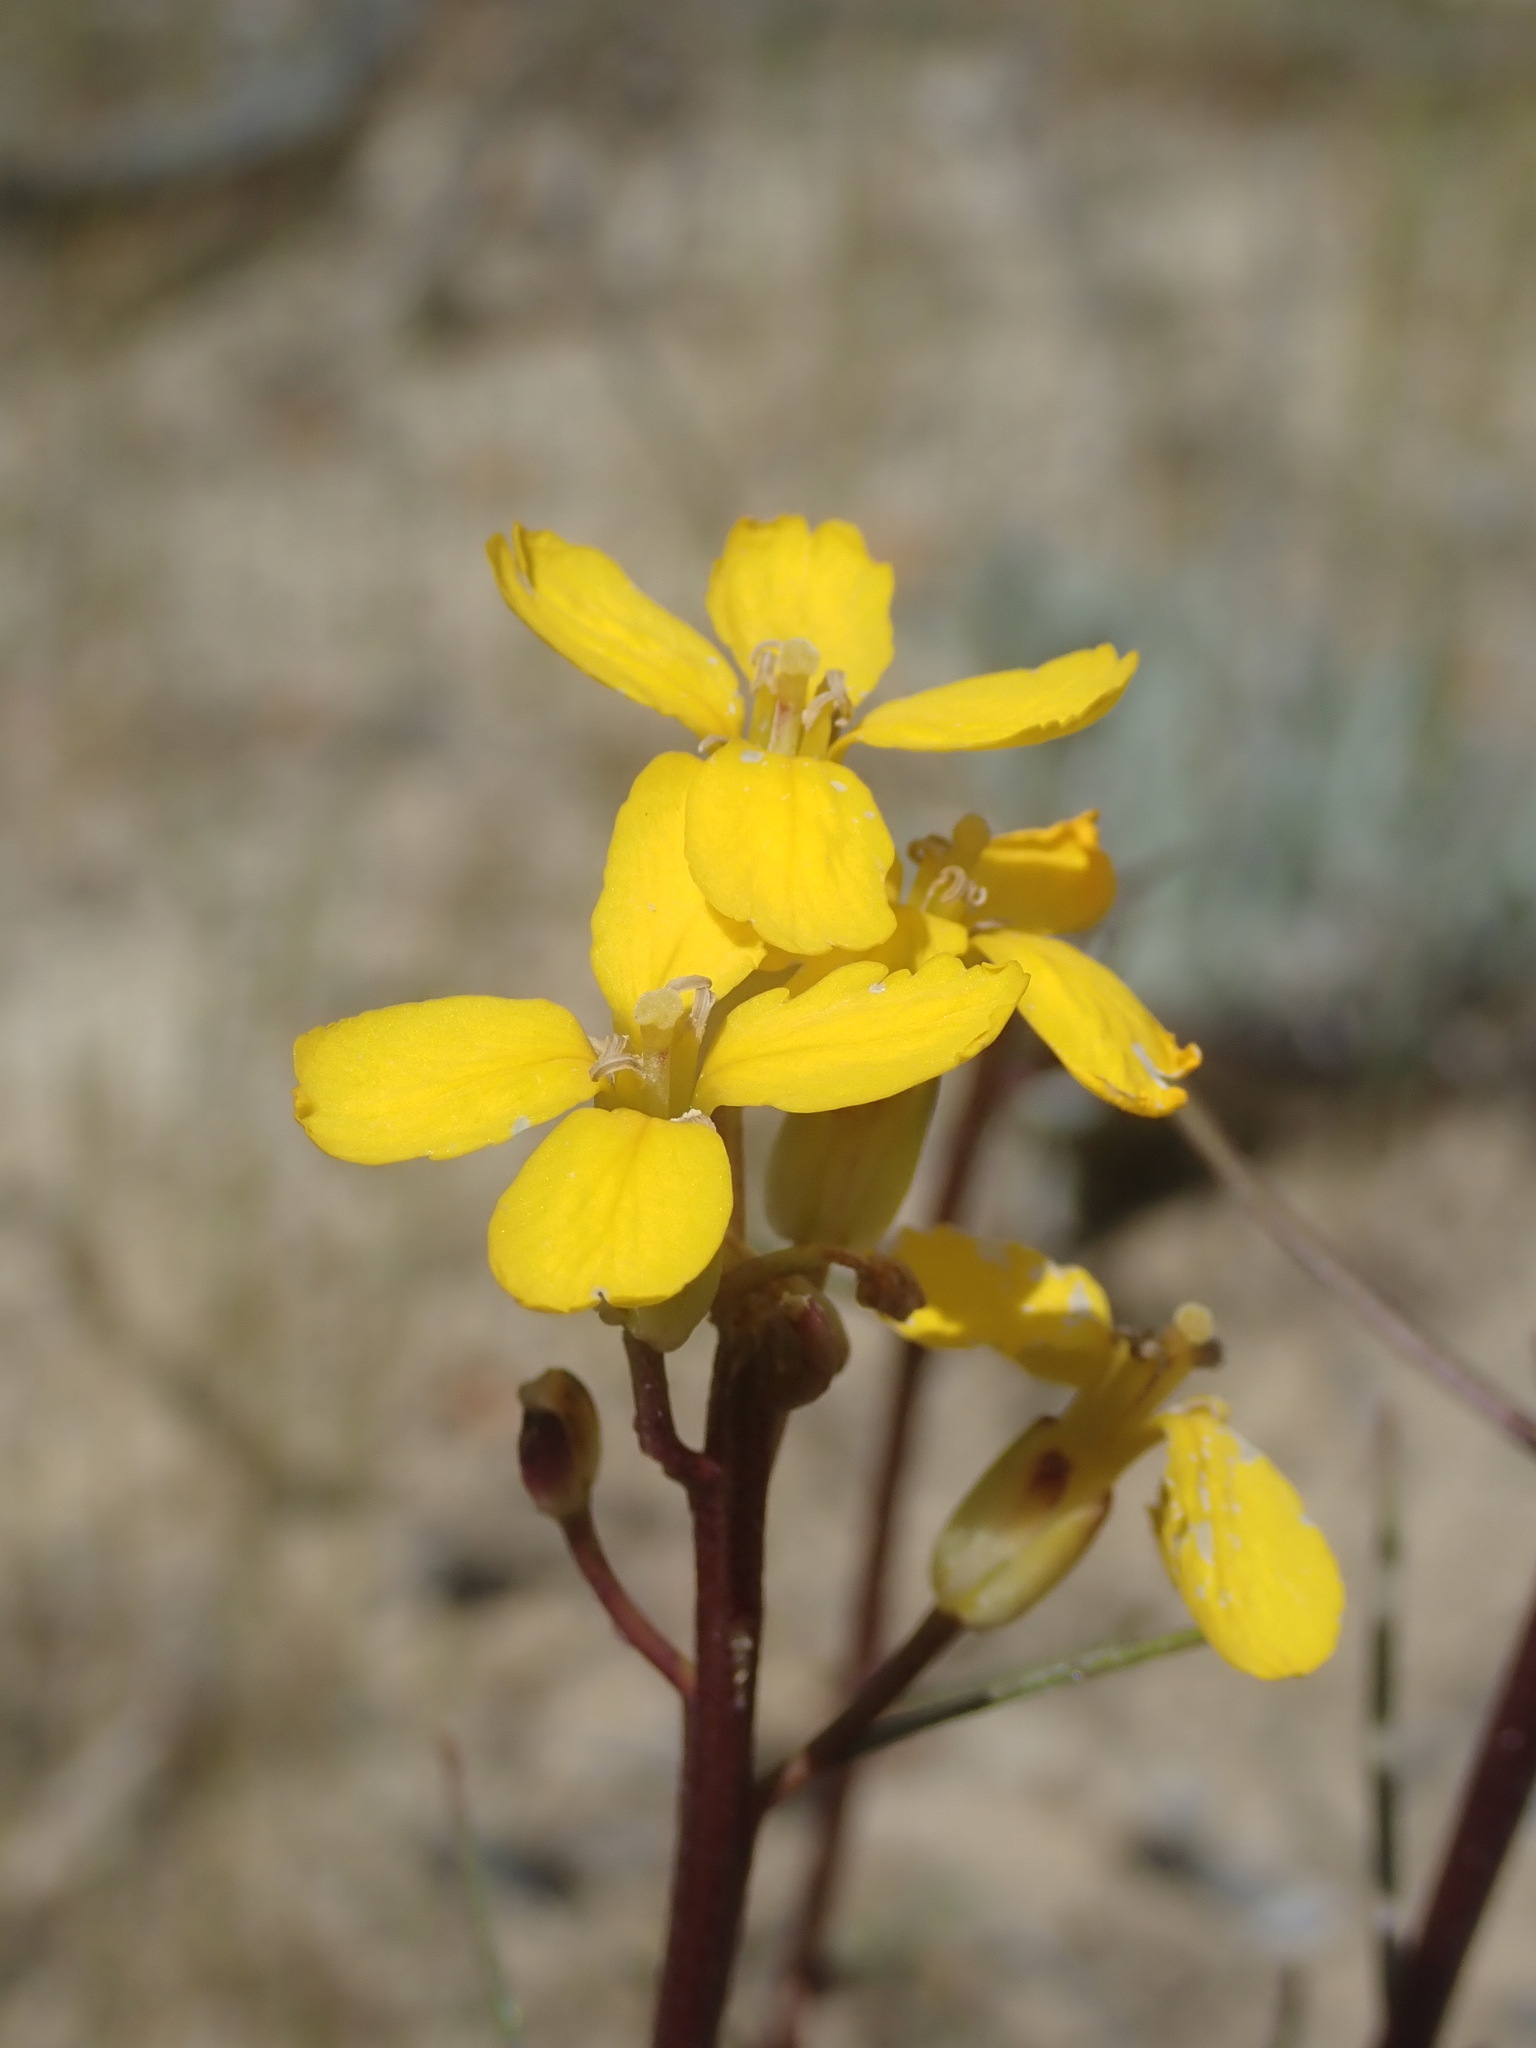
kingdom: Plantae
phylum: Tracheophyta
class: Magnoliopsida
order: Brassicales
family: Brassicaceae
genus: Erysimum
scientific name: Erysimum teretifolium
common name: Ben lomond wallflower
